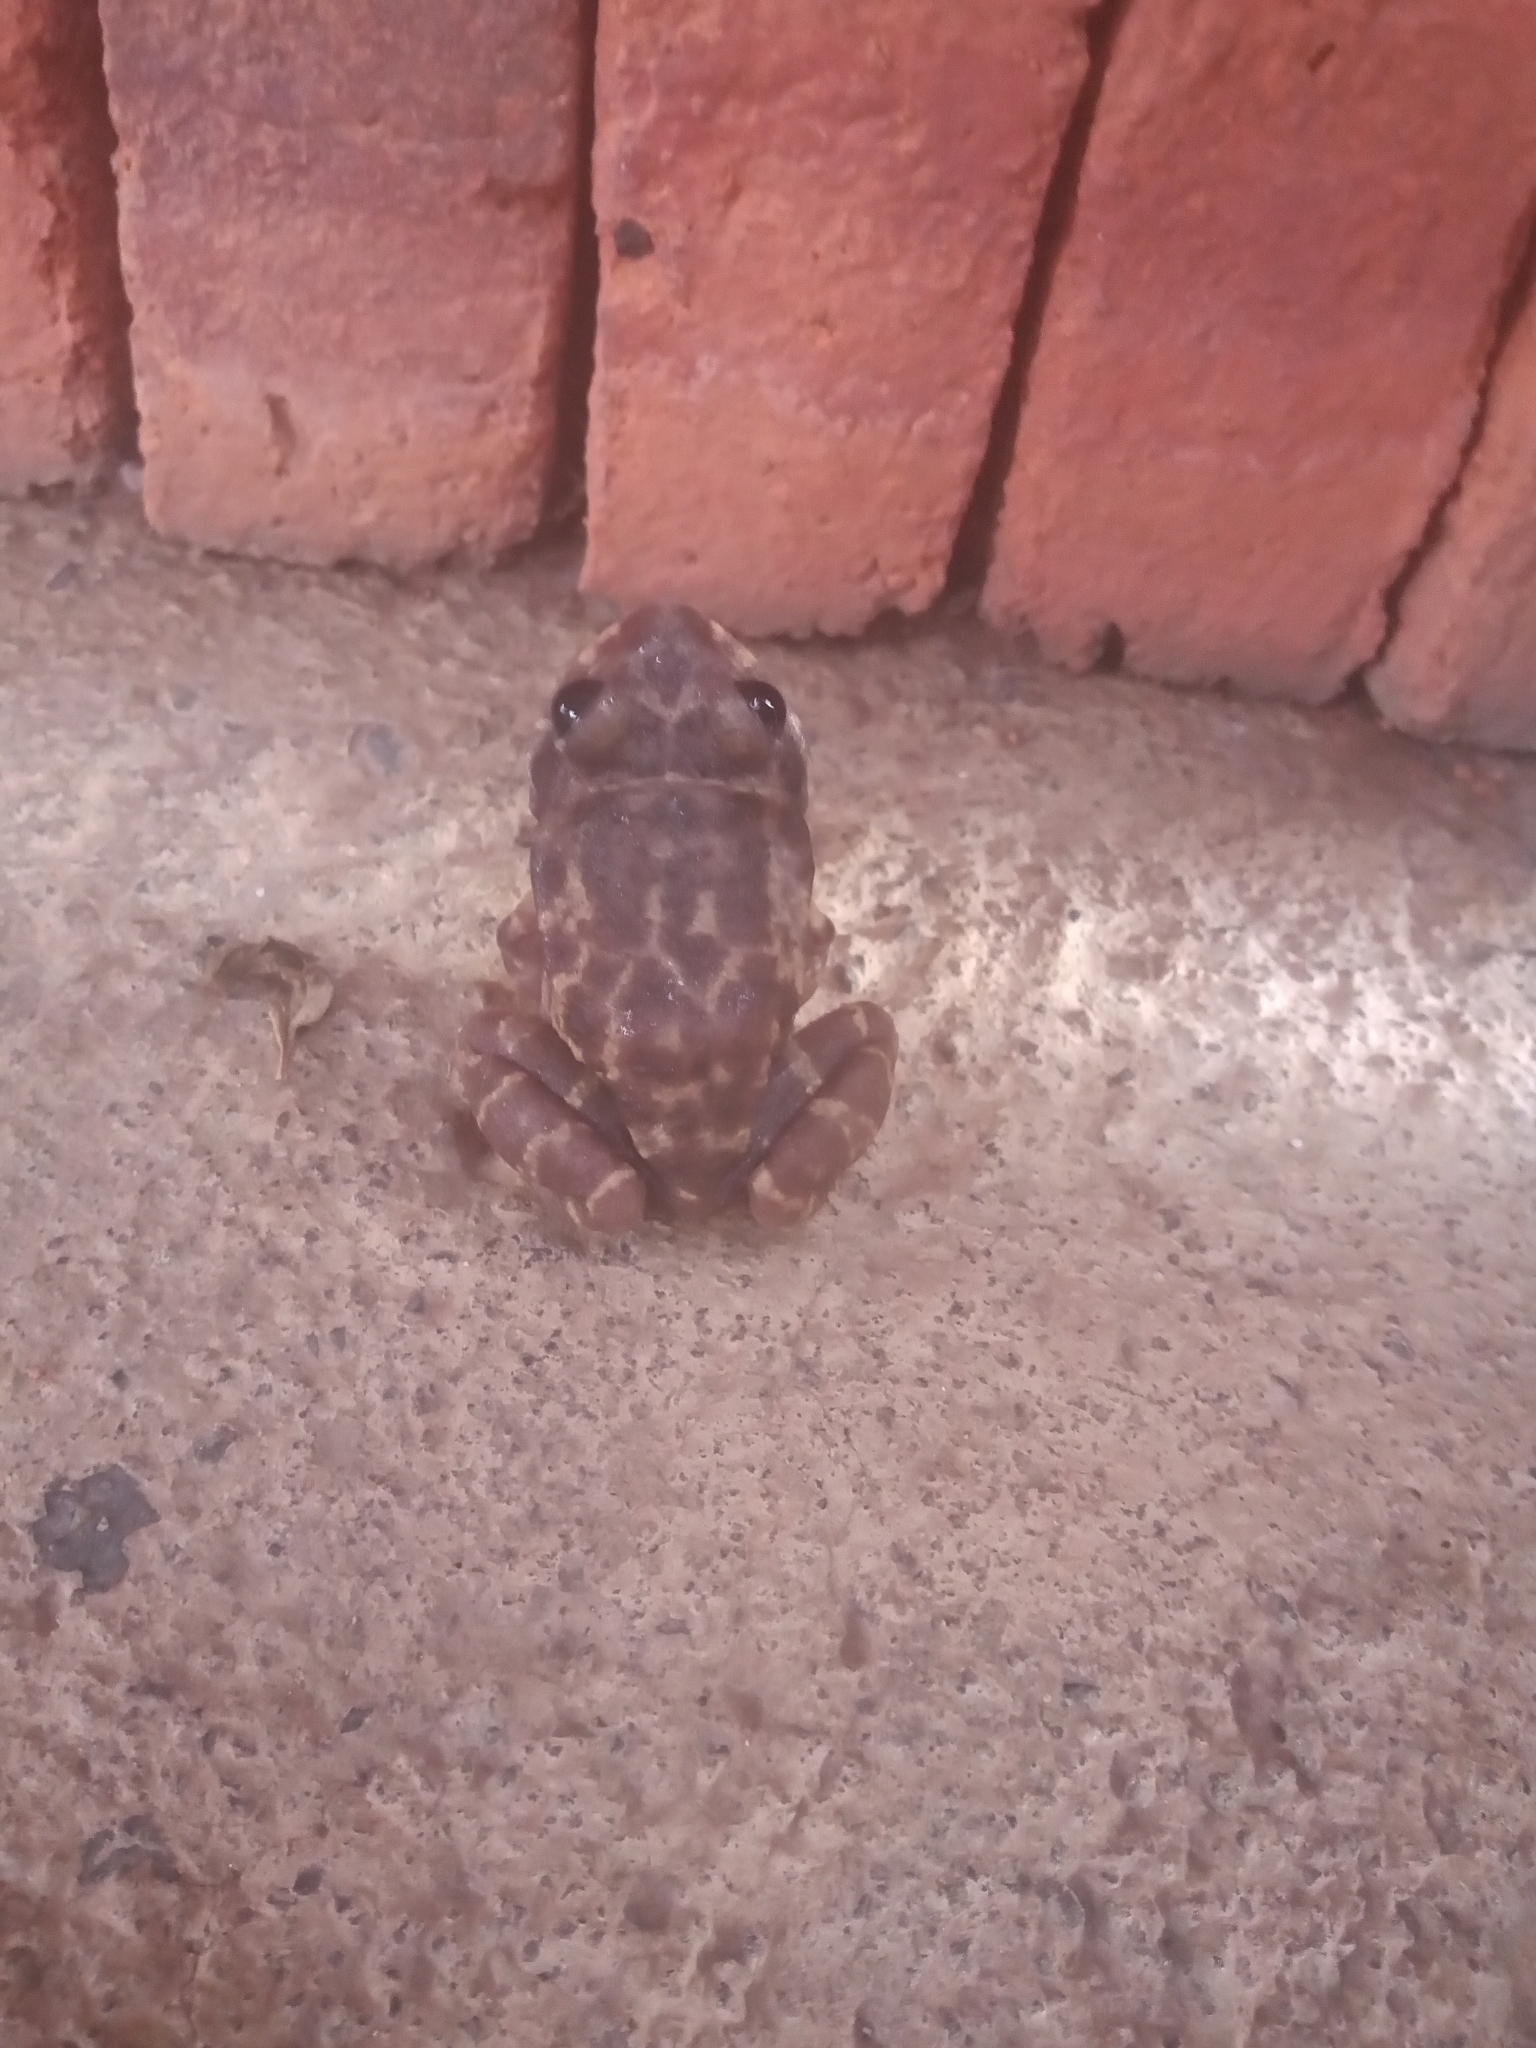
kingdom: Animalia
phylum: Chordata
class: Amphibia
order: Anura
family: Craugastoridae
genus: Craugastor
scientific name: Craugastor augusti
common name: Barking frog
